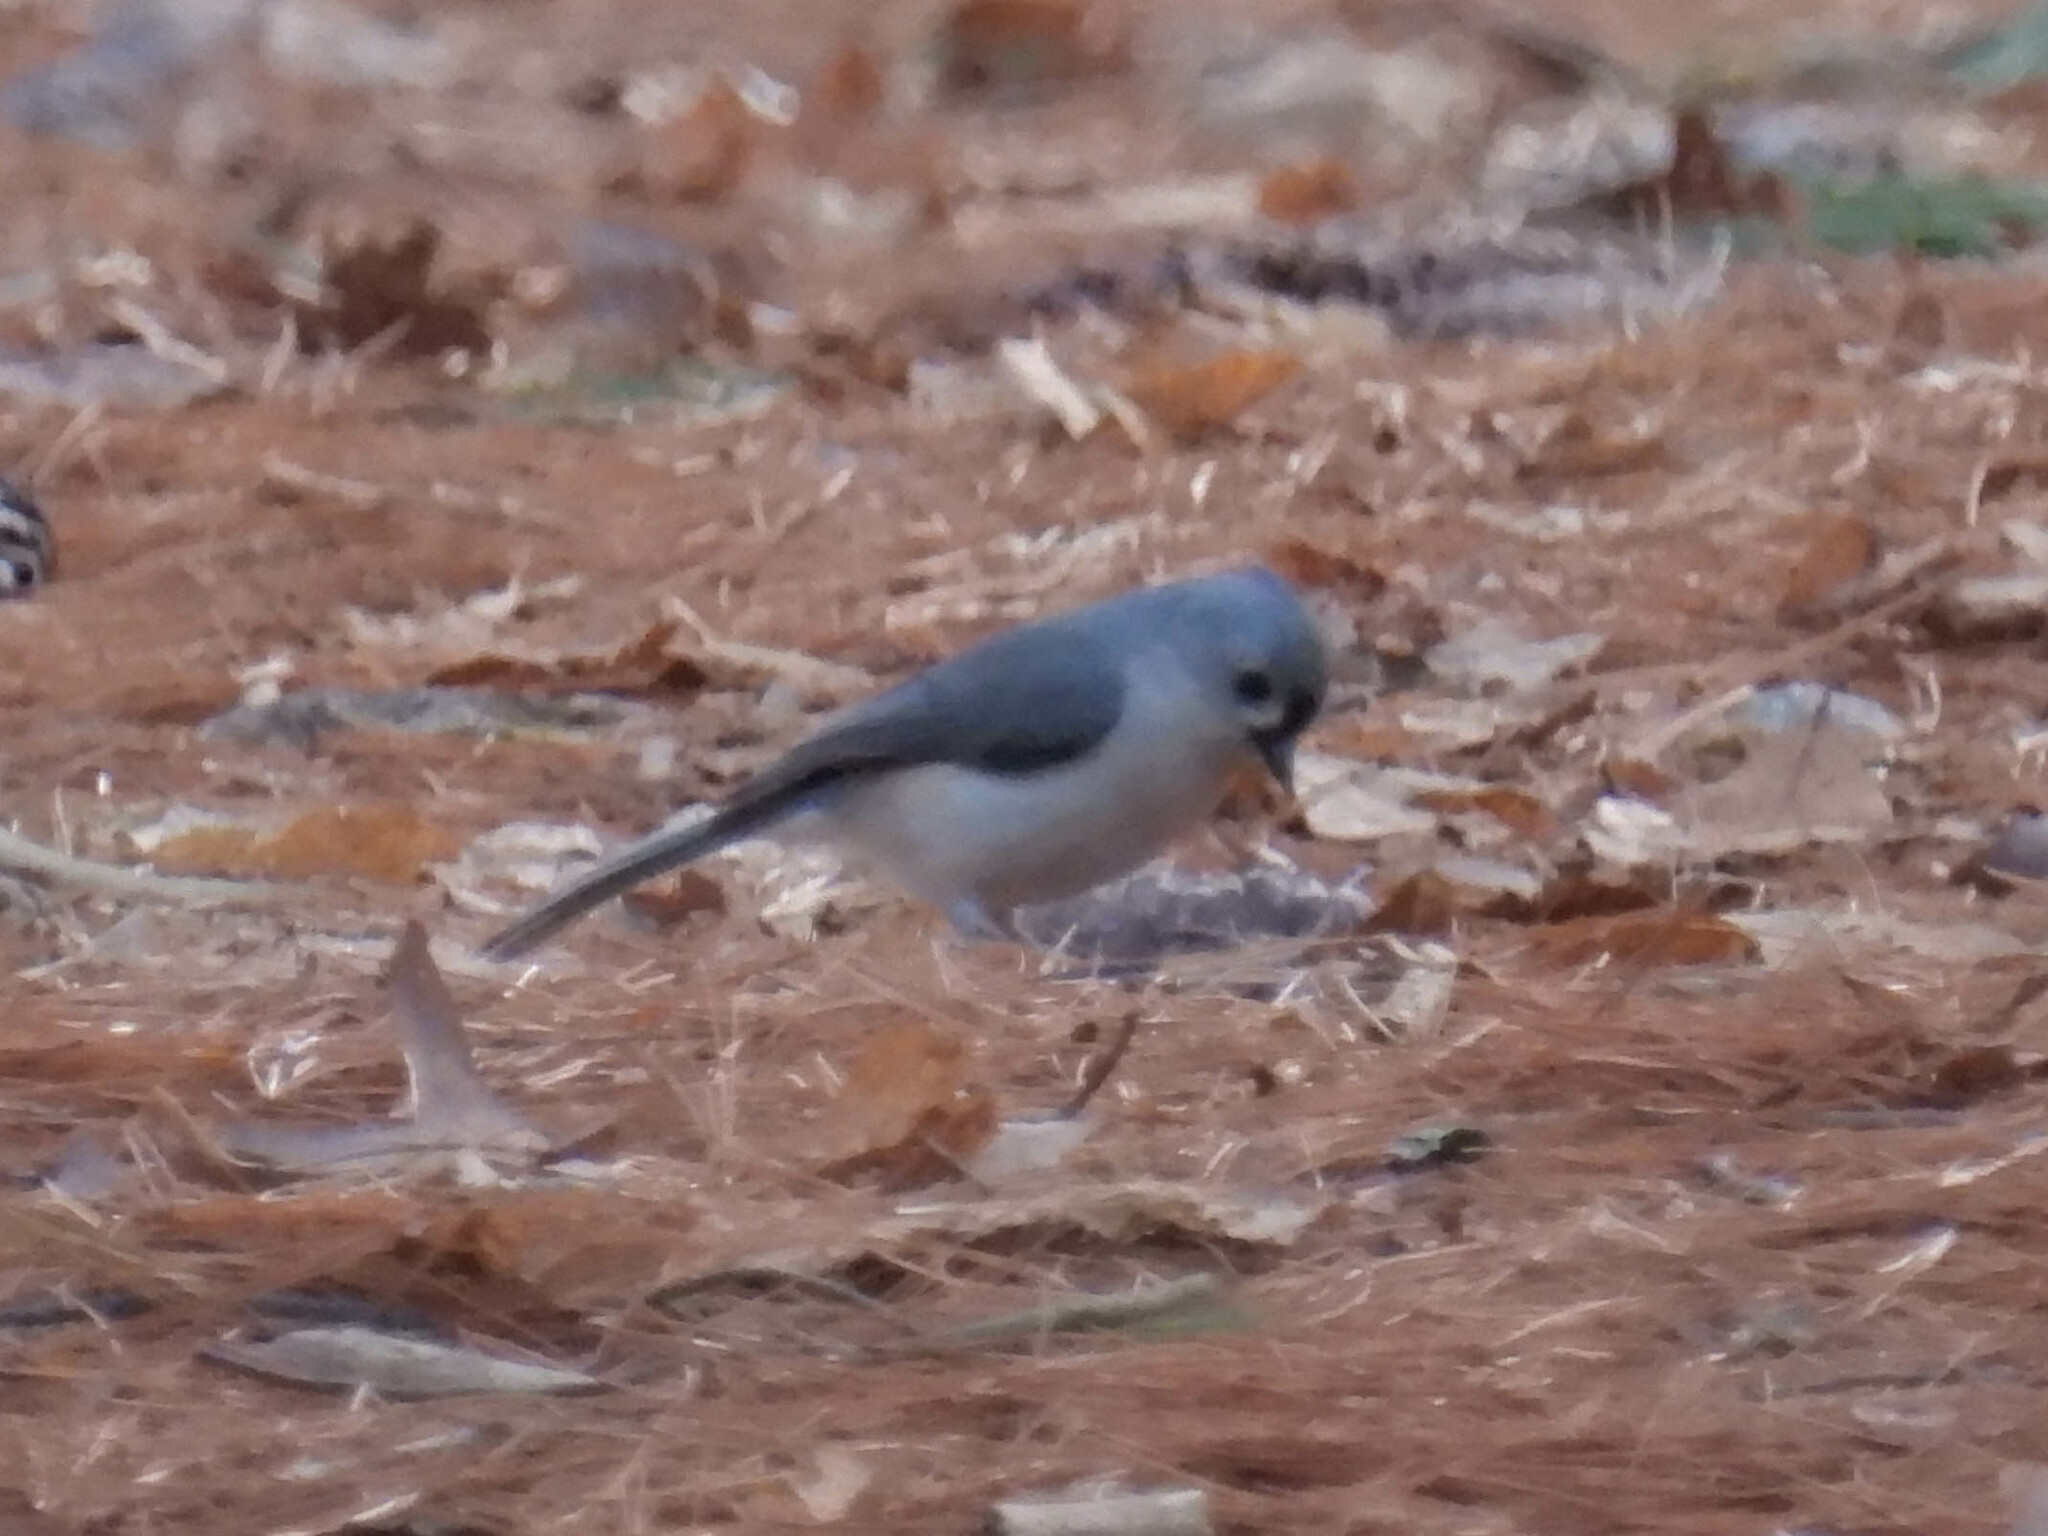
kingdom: Animalia
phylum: Chordata
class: Aves
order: Passeriformes
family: Paridae
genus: Baeolophus
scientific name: Baeolophus bicolor
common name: Tufted titmouse
